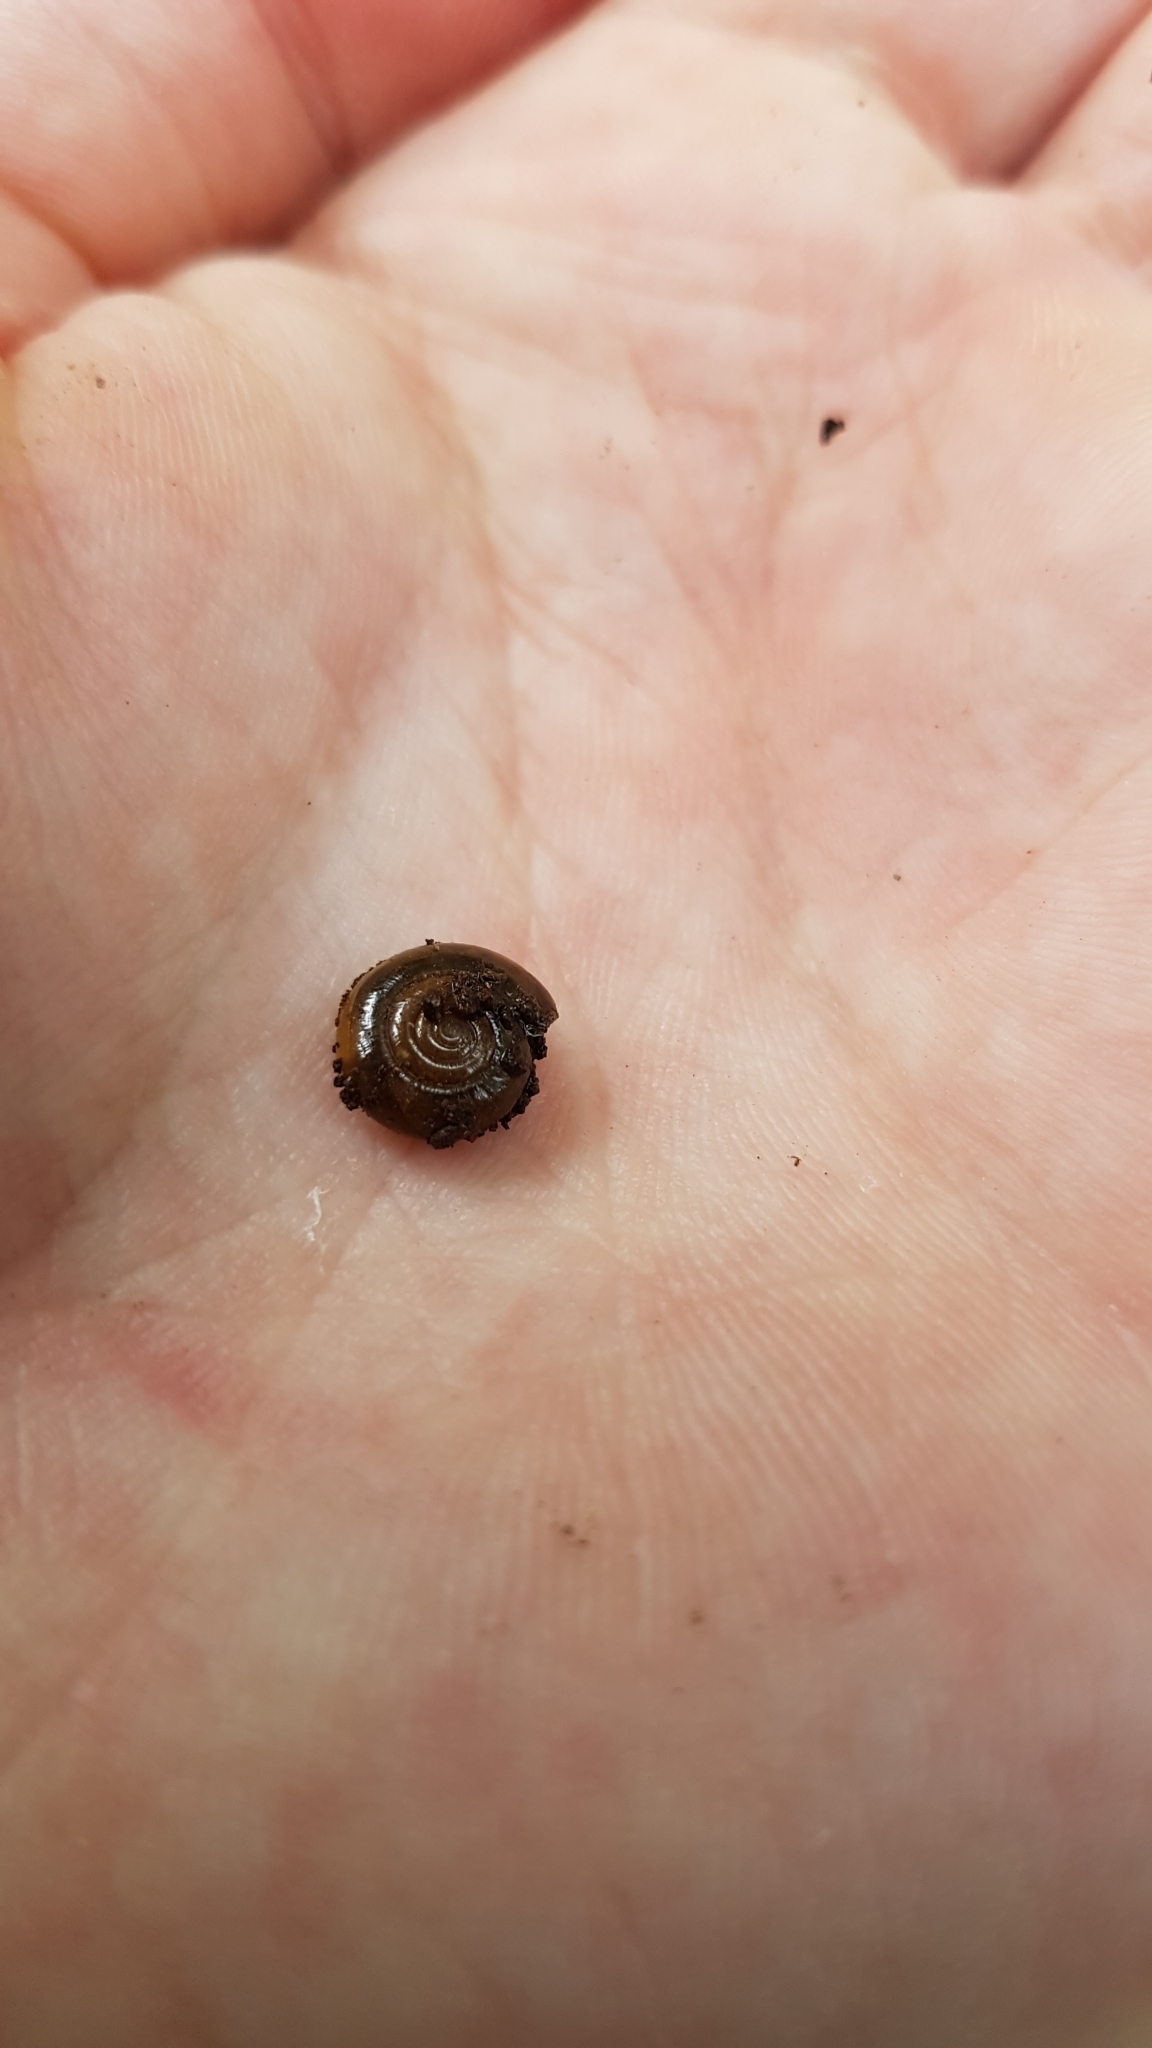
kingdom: Animalia
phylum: Mollusca
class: Gastropoda
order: Stylommatophora
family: Oxychilidae
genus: Oxychilus
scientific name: Oxychilus
